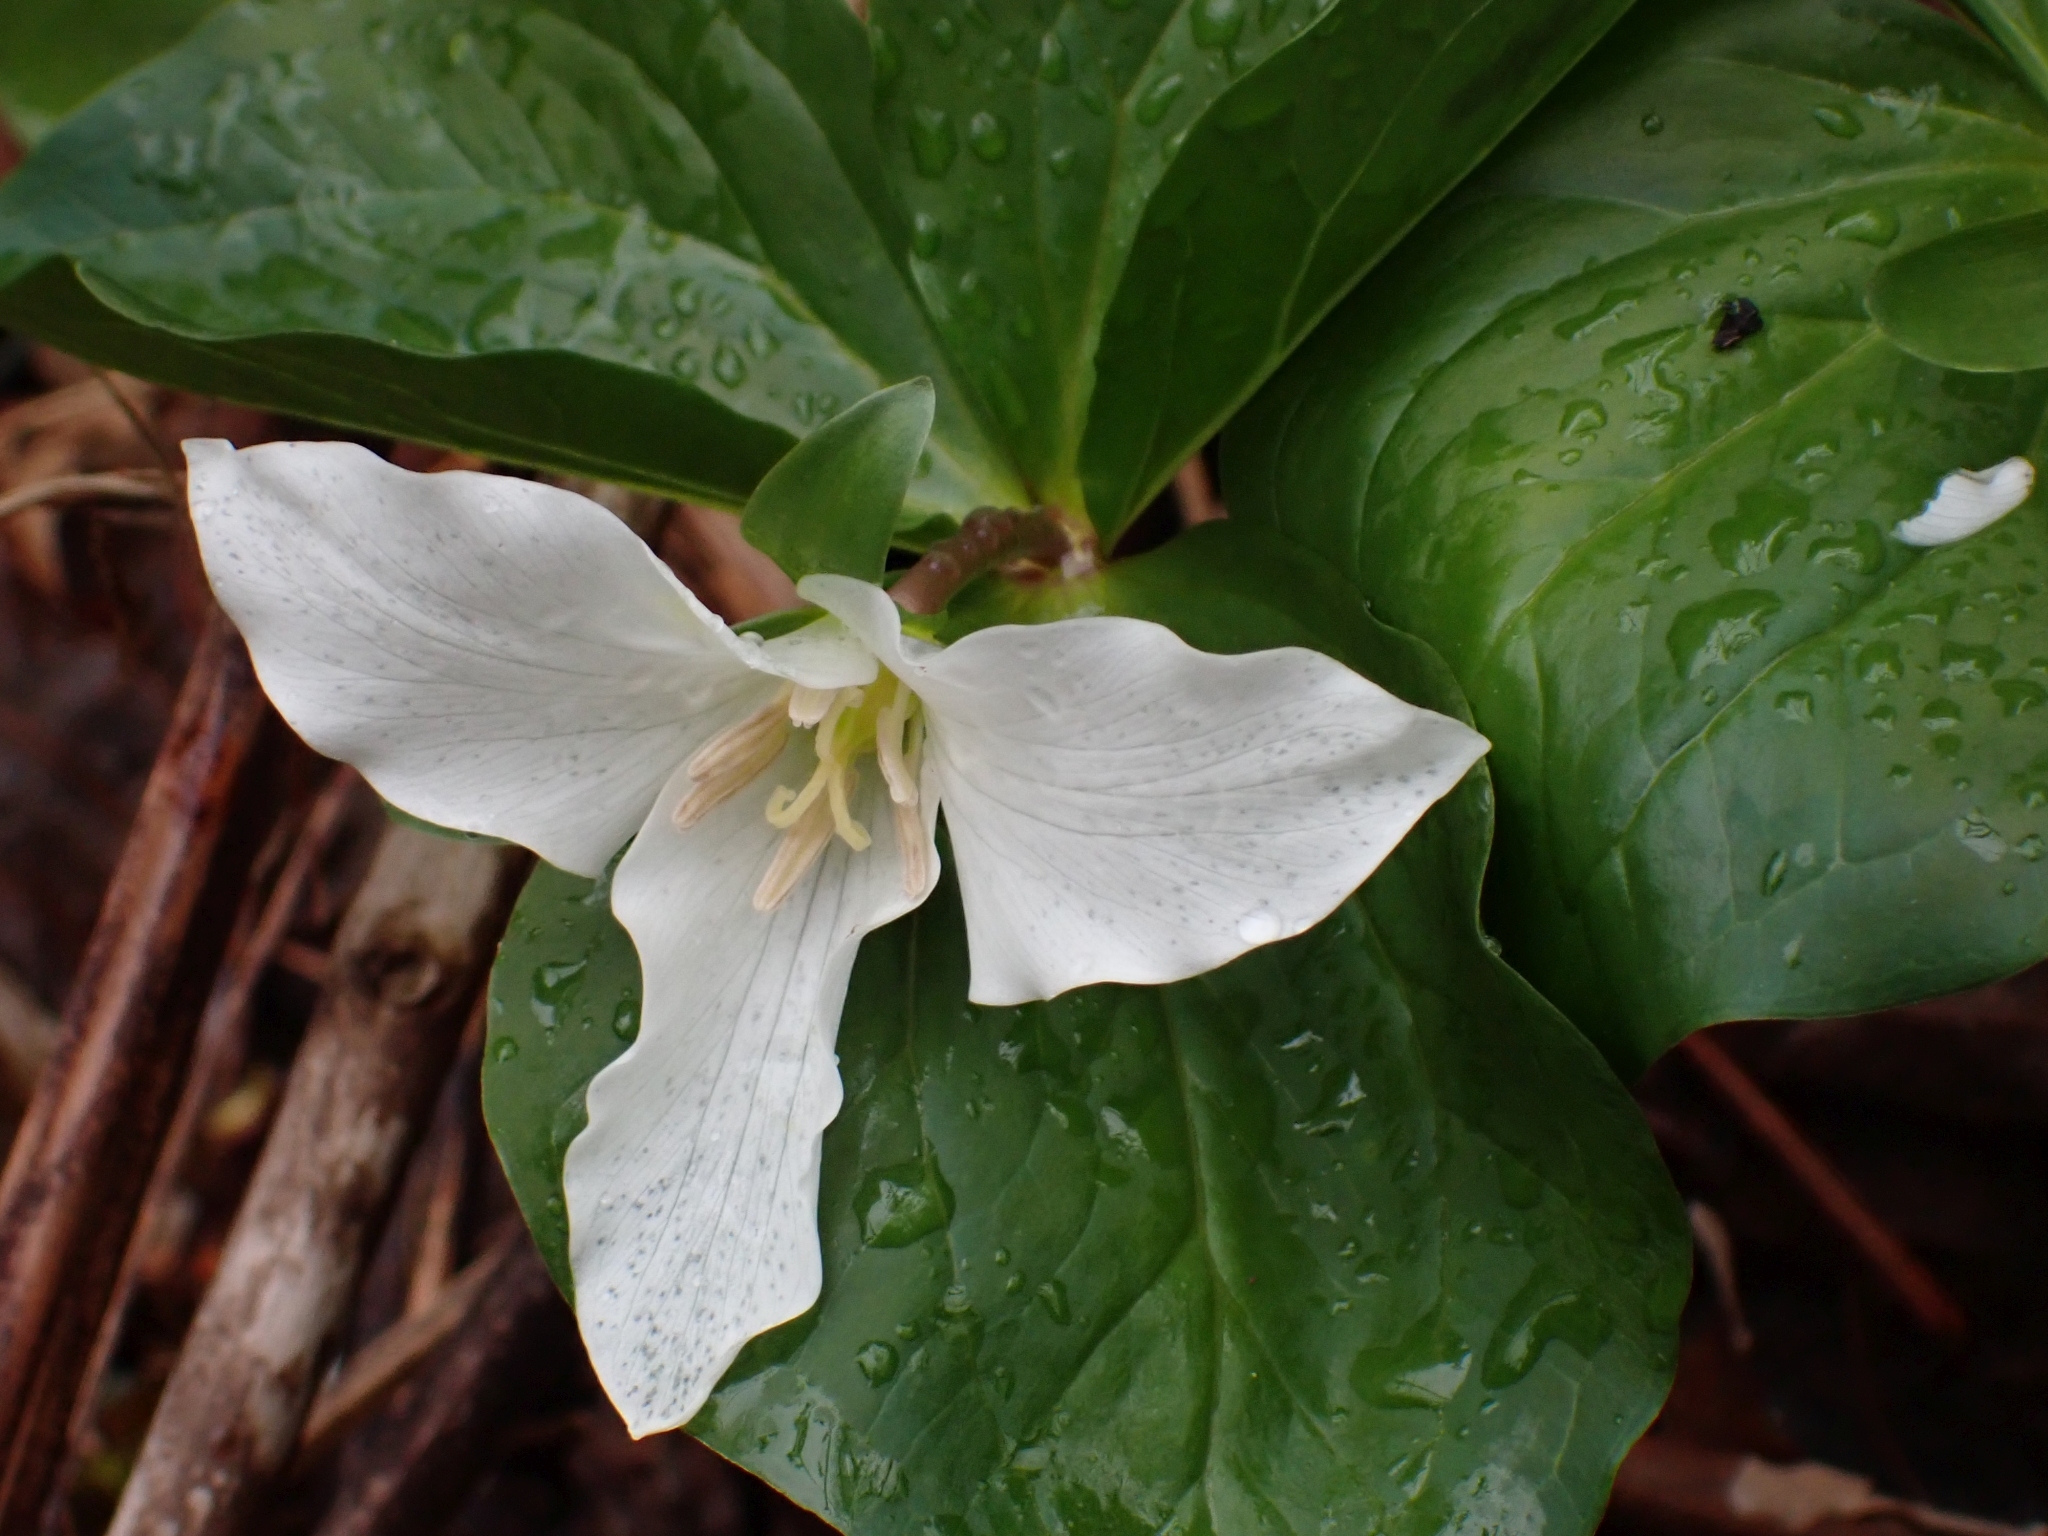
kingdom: Plantae
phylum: Tracheophyta
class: Liliopsida
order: Liliales
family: Melanthiaceae
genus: Trillium
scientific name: Trillium ovatum
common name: Pacific trillium
